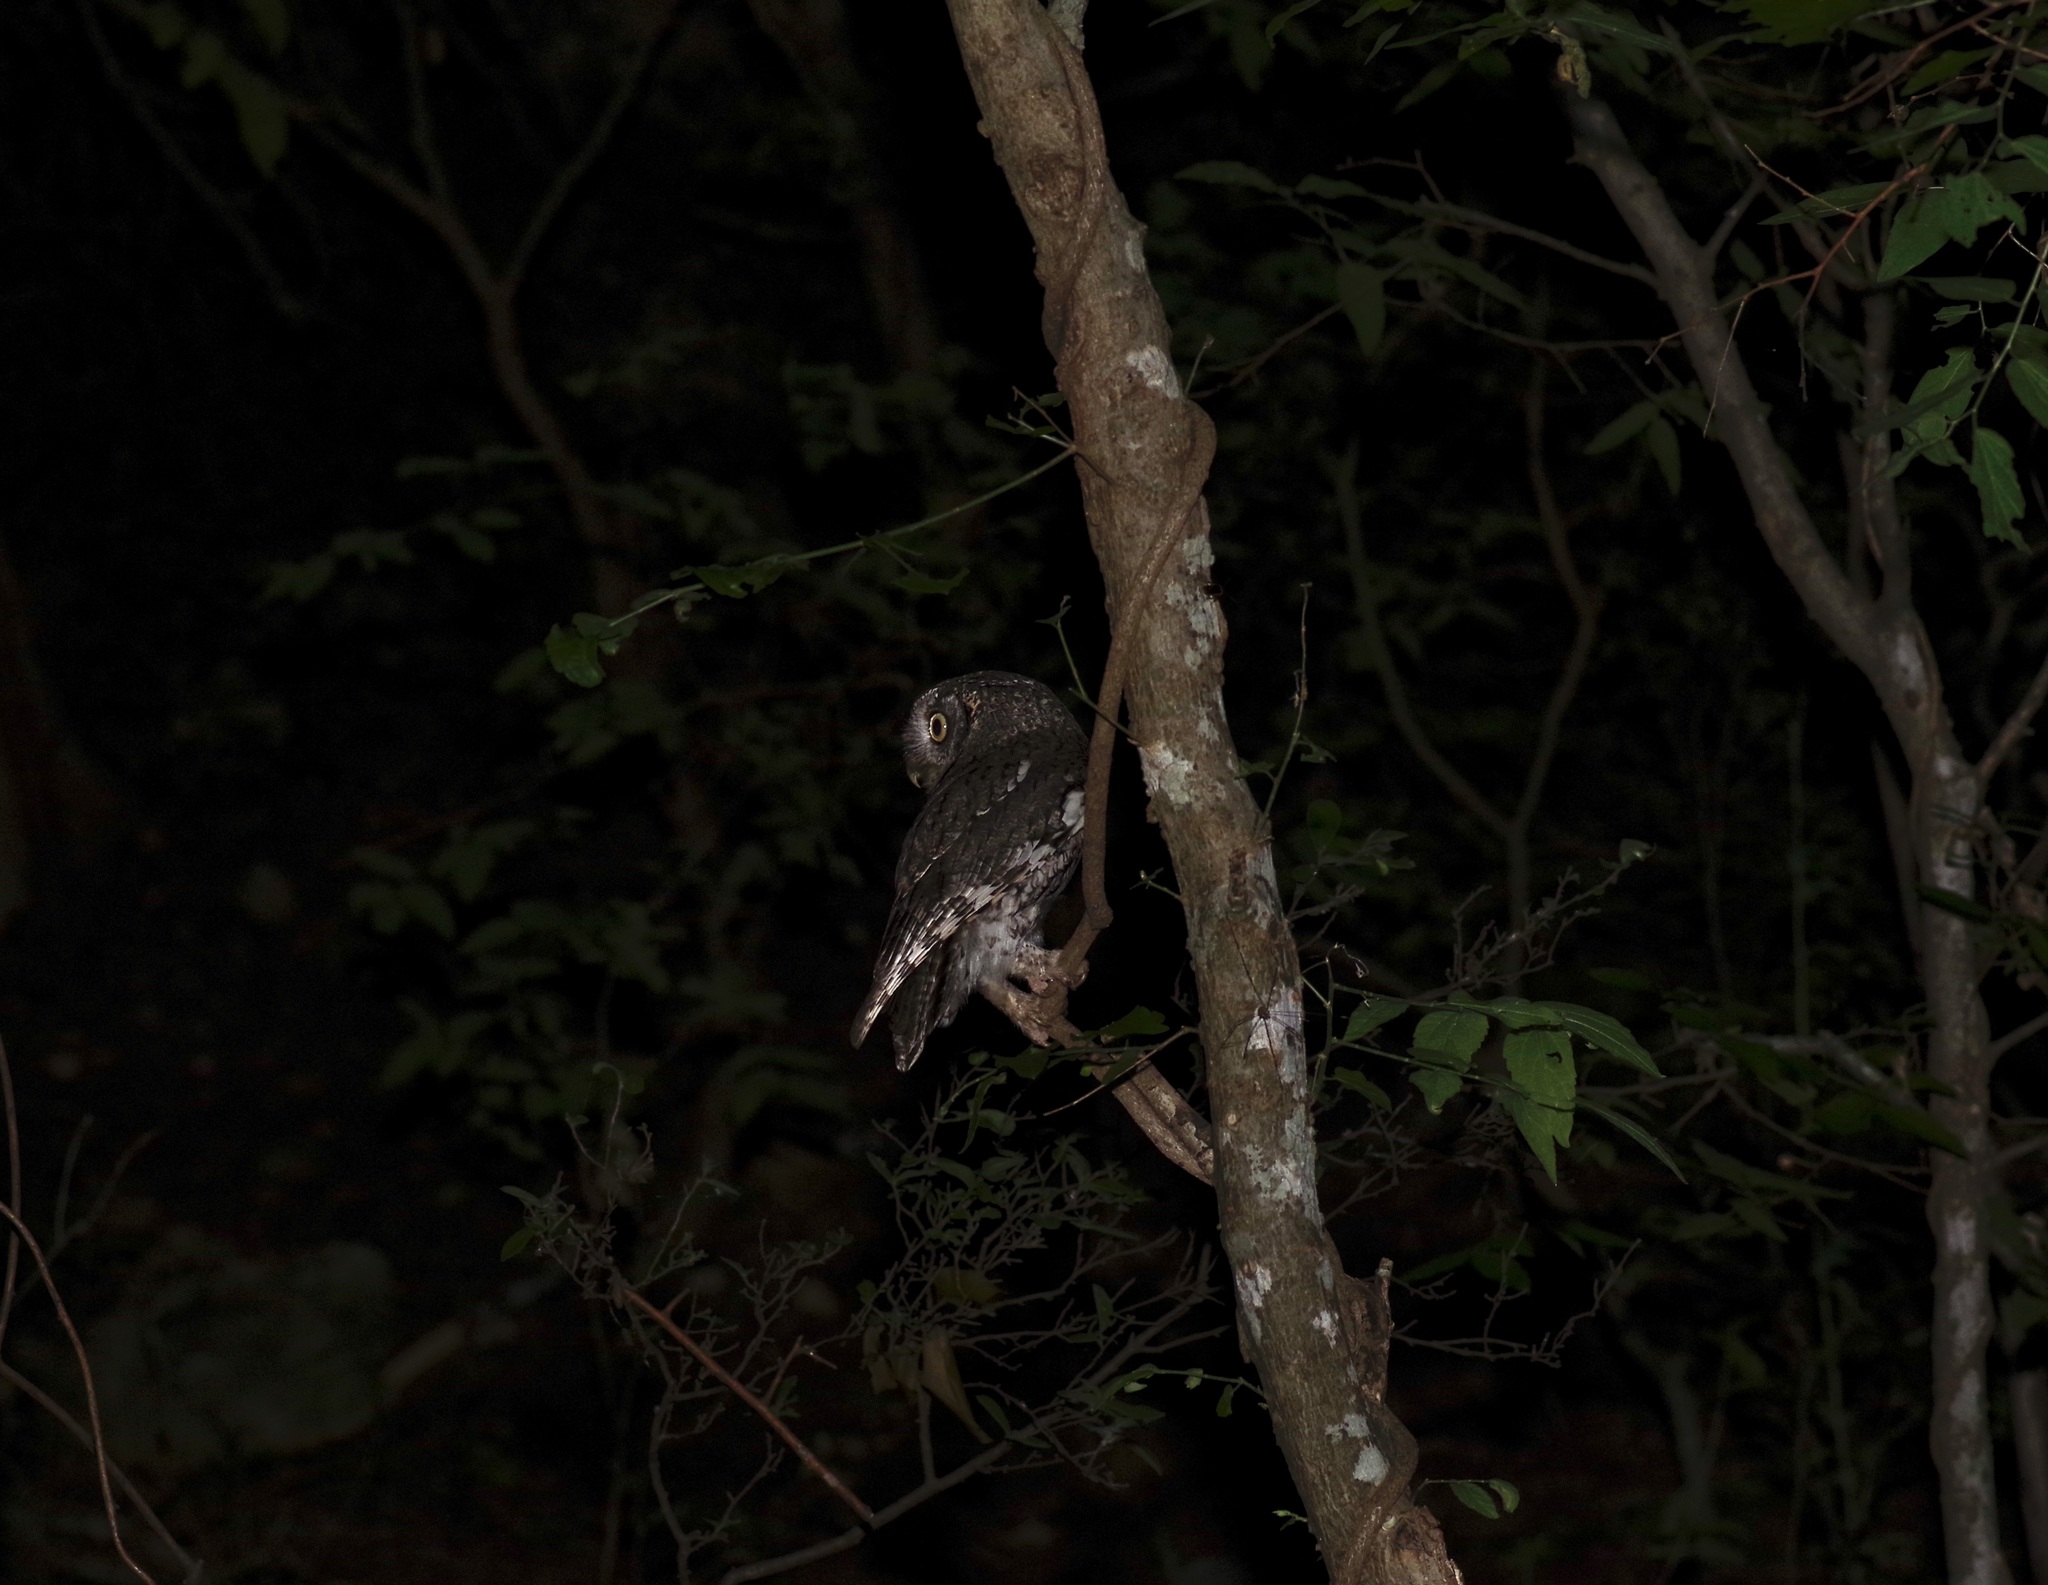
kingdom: Animalia
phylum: Chordata
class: Aves
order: Strigiformes
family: Strigidae
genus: Megascops
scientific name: Megascops asio
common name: Eastern screech-owl
